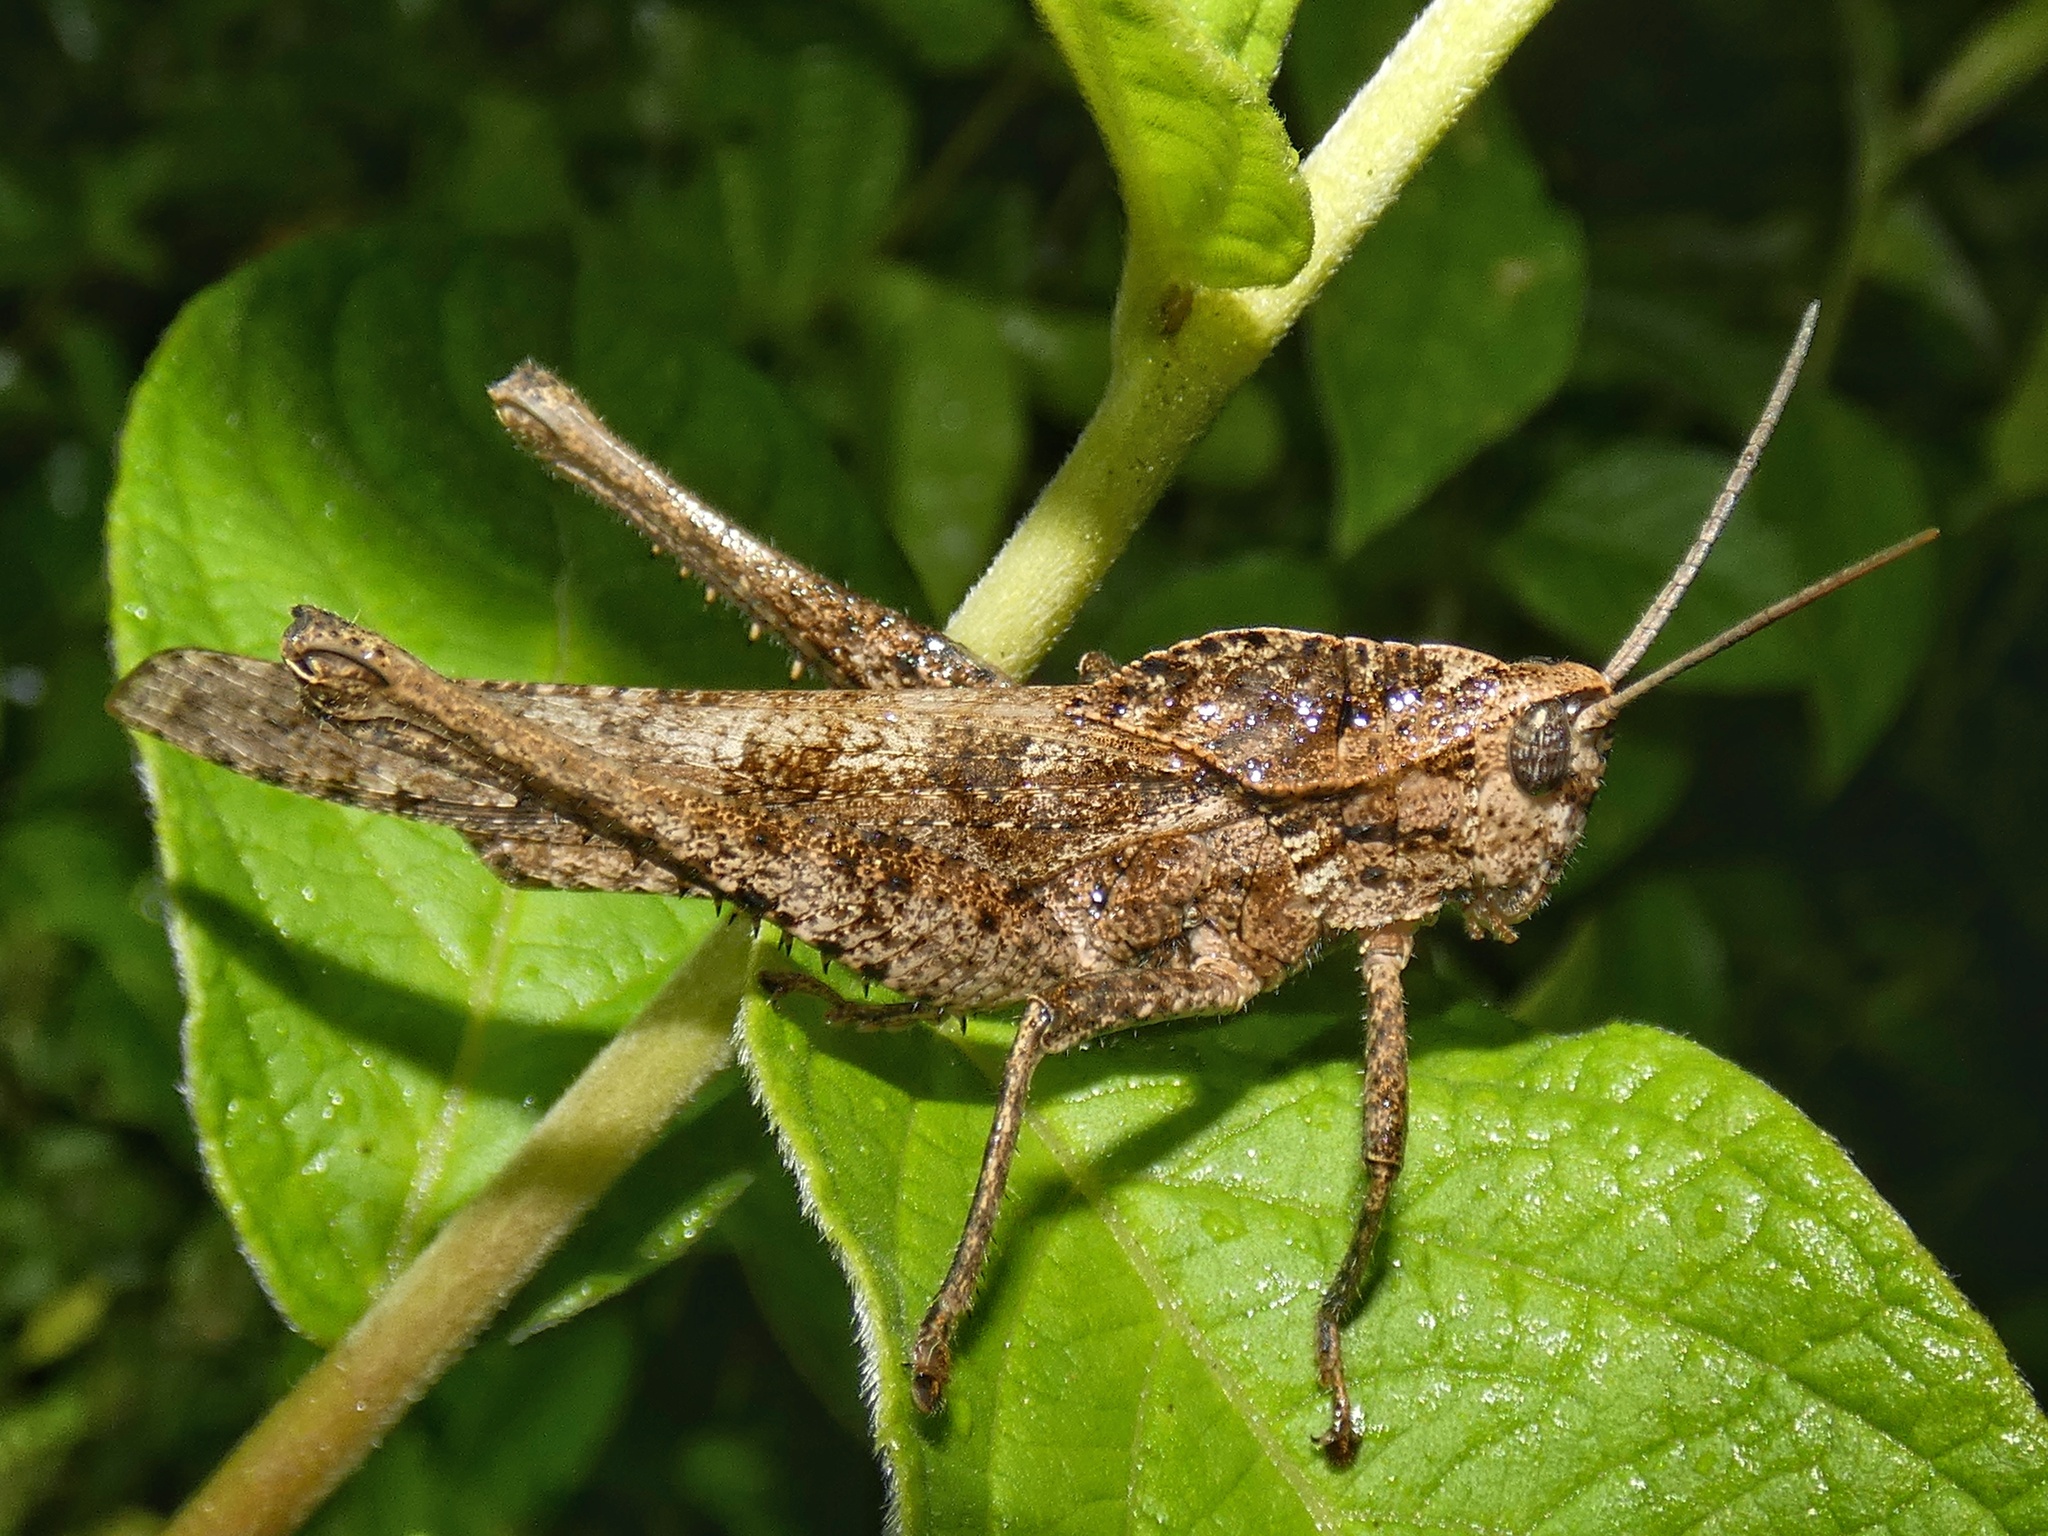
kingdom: Animalia
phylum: Arthropoda
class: Insecta
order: Orthoptera
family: Romaleidae
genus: Xyleus
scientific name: Xyleus discoideus
